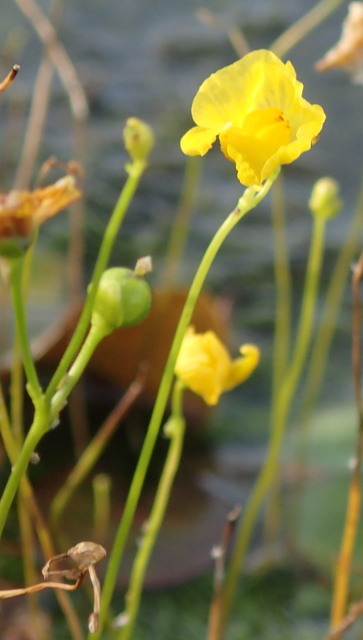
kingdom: Plantae
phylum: Tracheophyta
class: Magnoliopsida
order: Lamiales
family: Lentibulariaceae
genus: Utricularia
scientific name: Utricularia gibba
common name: Humped bladderwort
